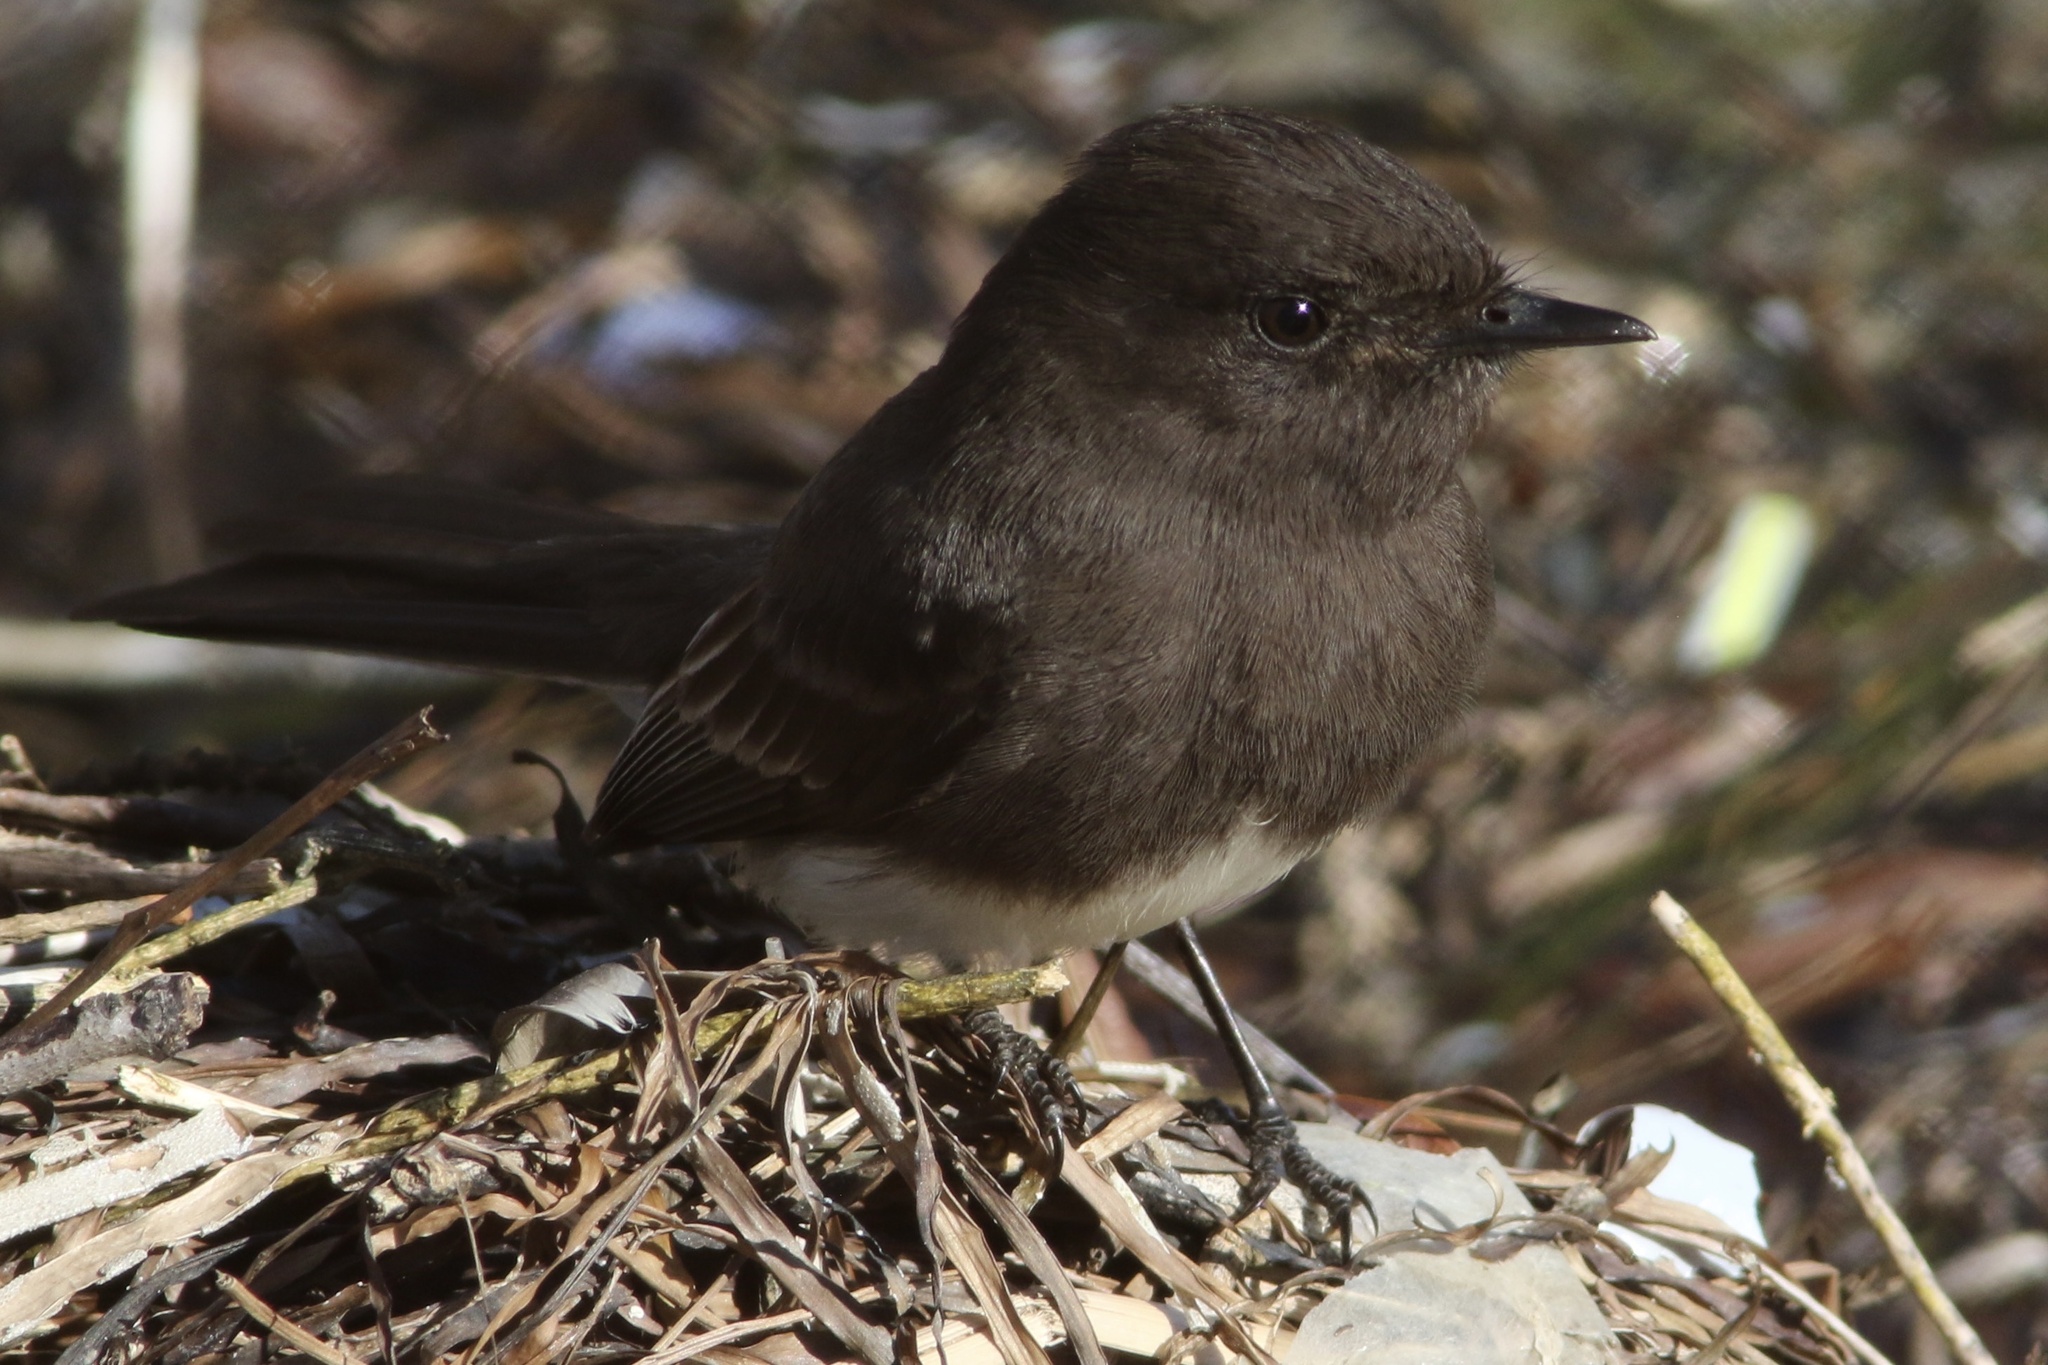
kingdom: Animalia
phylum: Chordata
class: Aves
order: Passeriformes
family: Tyrannidae
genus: Sayornis
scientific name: Sayornis nigricans
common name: Black phoebe
